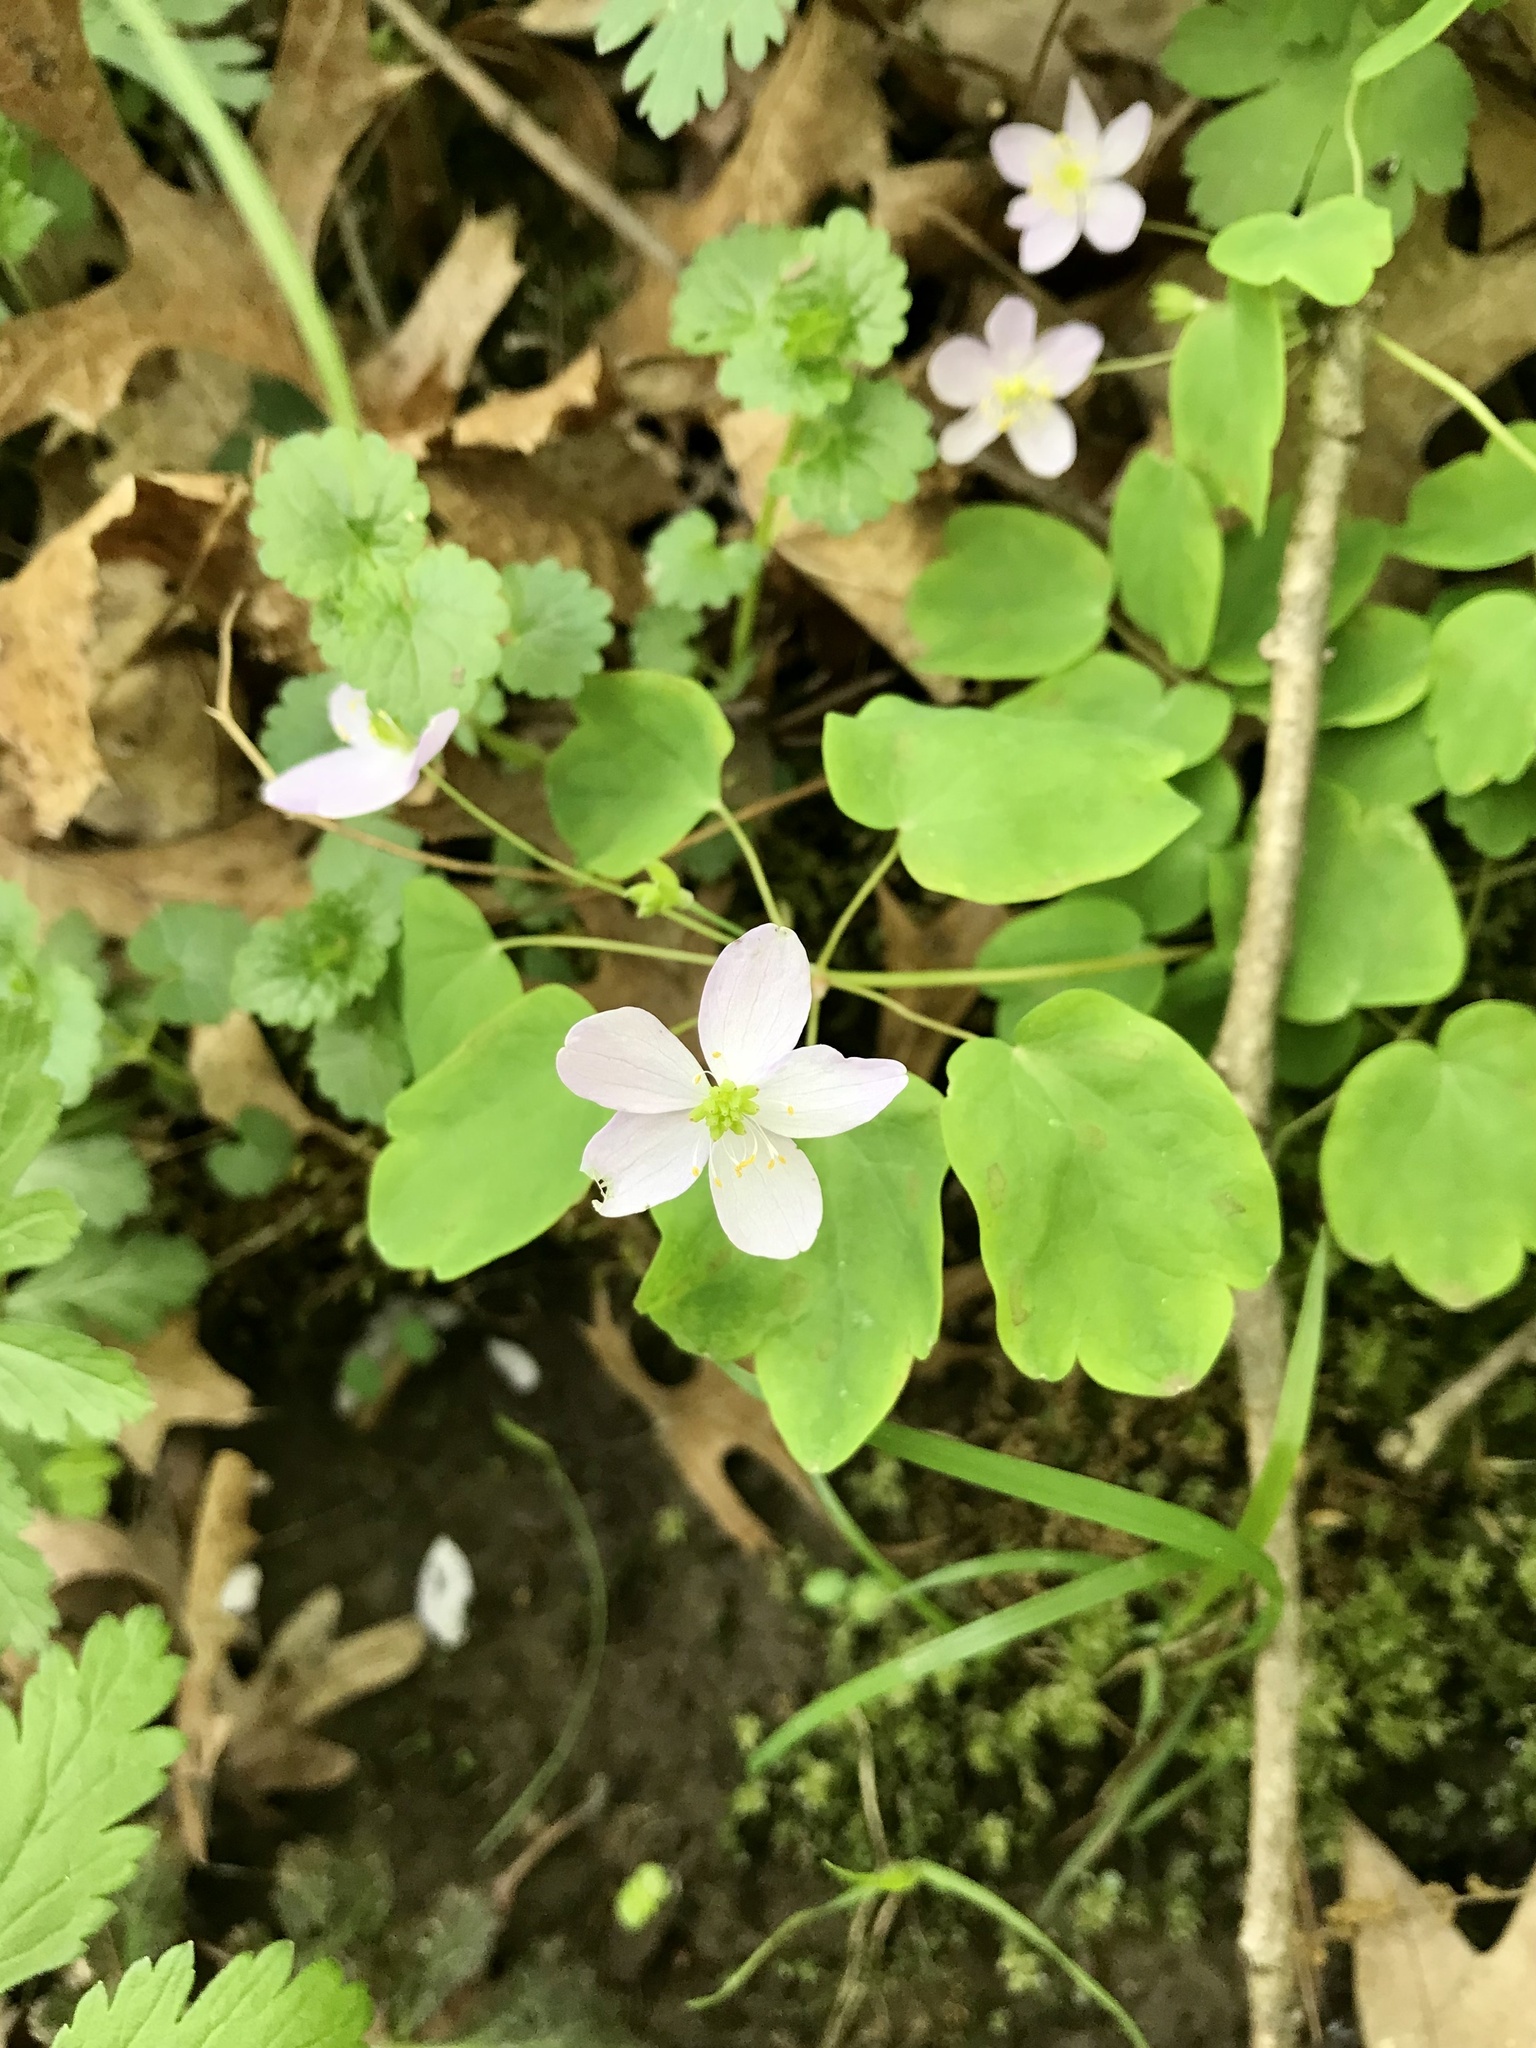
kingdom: Plantae
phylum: Tracheophyta
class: Magnoliopsida
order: Ranunculales
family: Ranunculaceae
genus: Thalictrum
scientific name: Thalictrum thalictroides
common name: Rue-anemone
